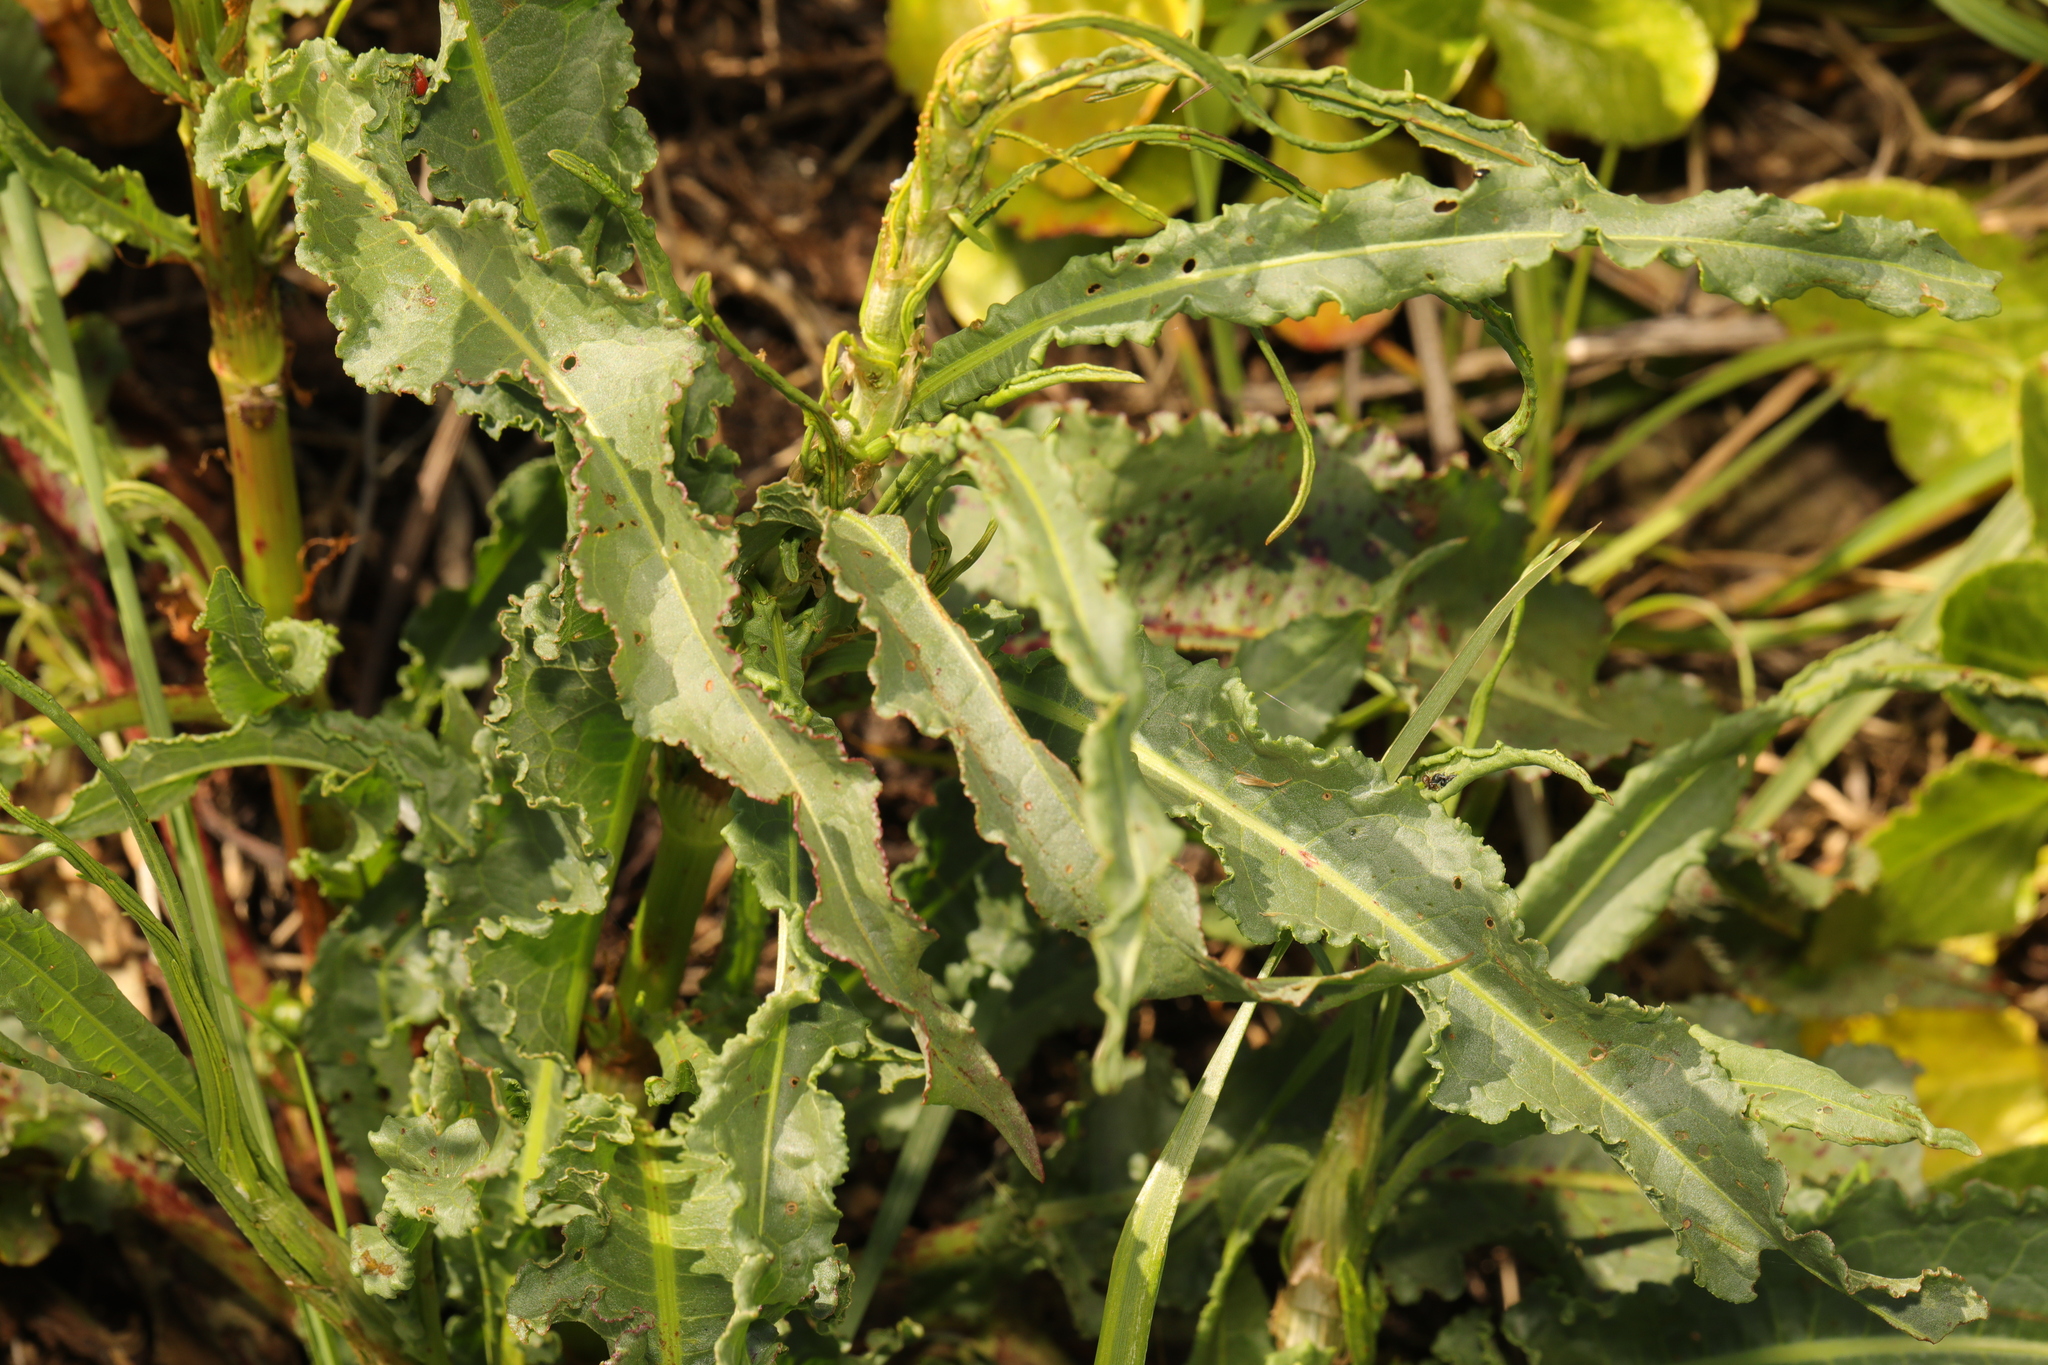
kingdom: Plantae
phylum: Tracheophyta
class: Magnoliopsida
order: Caryophyllales
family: Polygonaceae
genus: Rumex
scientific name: Rumex crispus
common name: Curled dock
